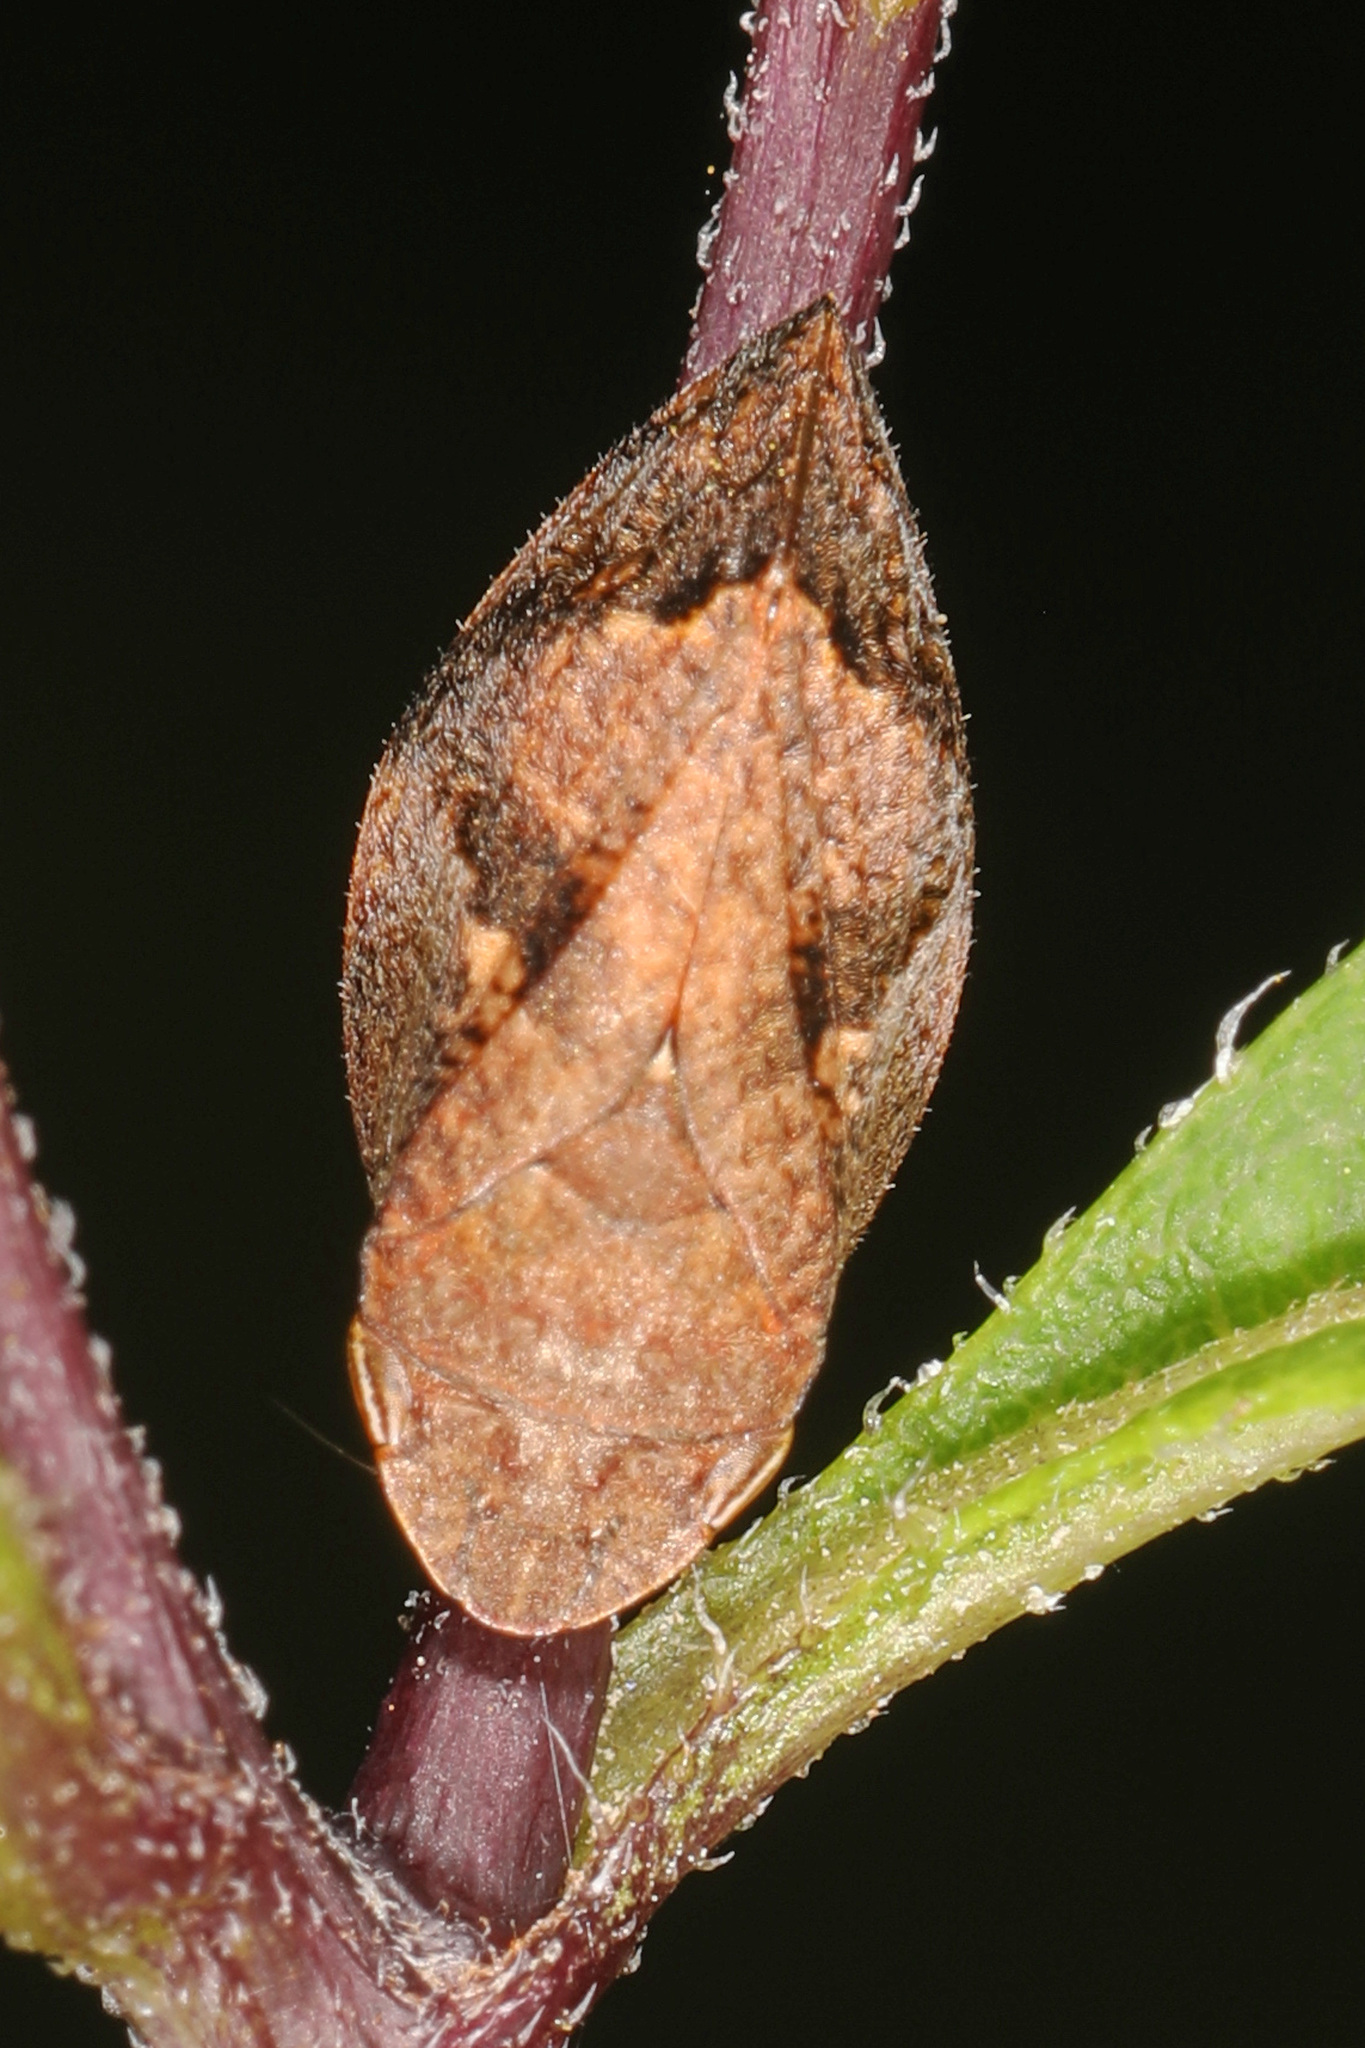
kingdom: Animalia
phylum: Arthropoda
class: Insecta
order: Hemiptera
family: Aphrophoridae
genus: Lepyronia
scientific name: Lepyronia quadrangularis
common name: Diamond-backed spittlebug
